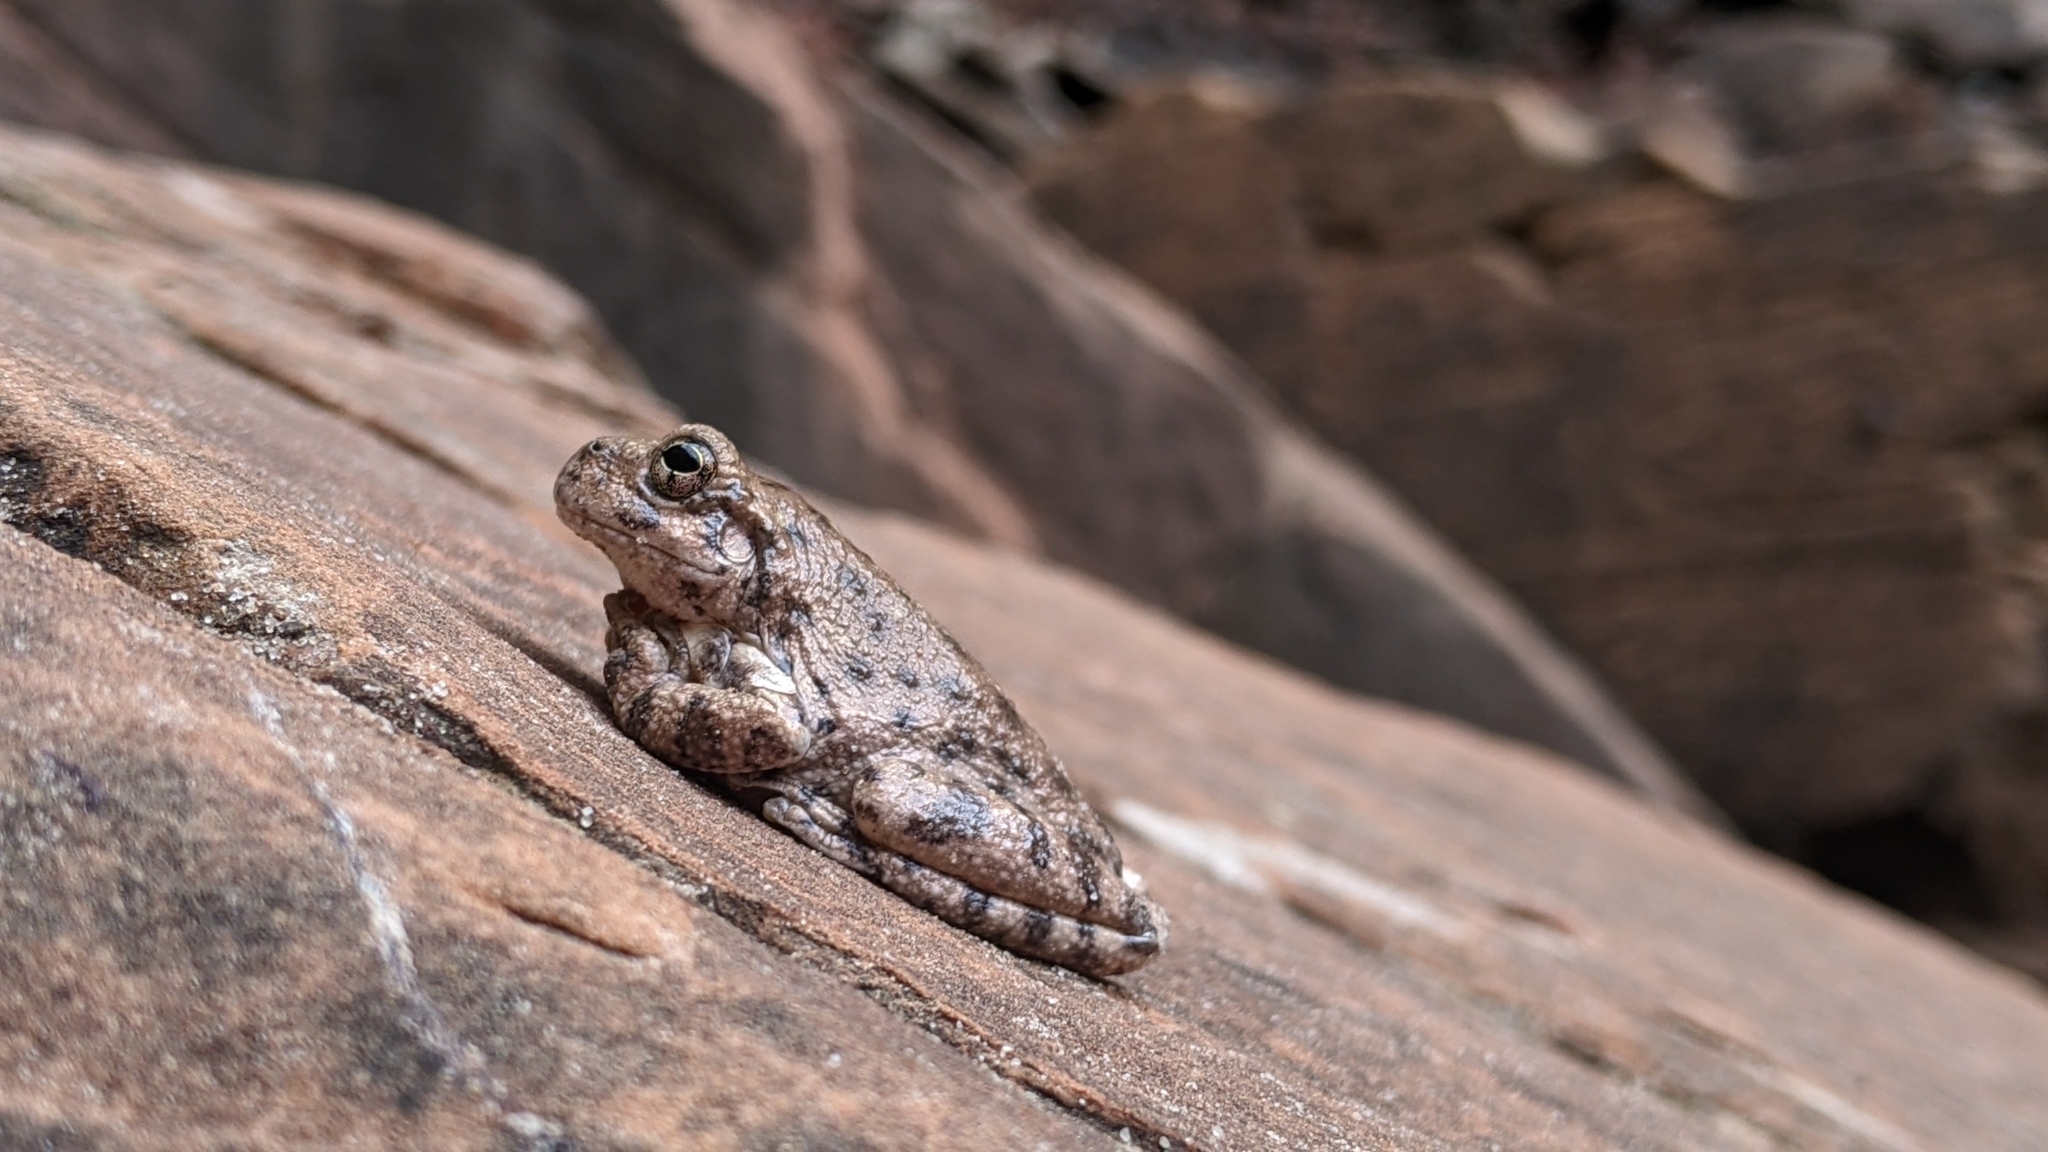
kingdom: Animalia
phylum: Chordata
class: Amphibia
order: Anura
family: Hylidae
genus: Dryophytes
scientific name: Dryophytes arenicolor
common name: Canyon treefrog
